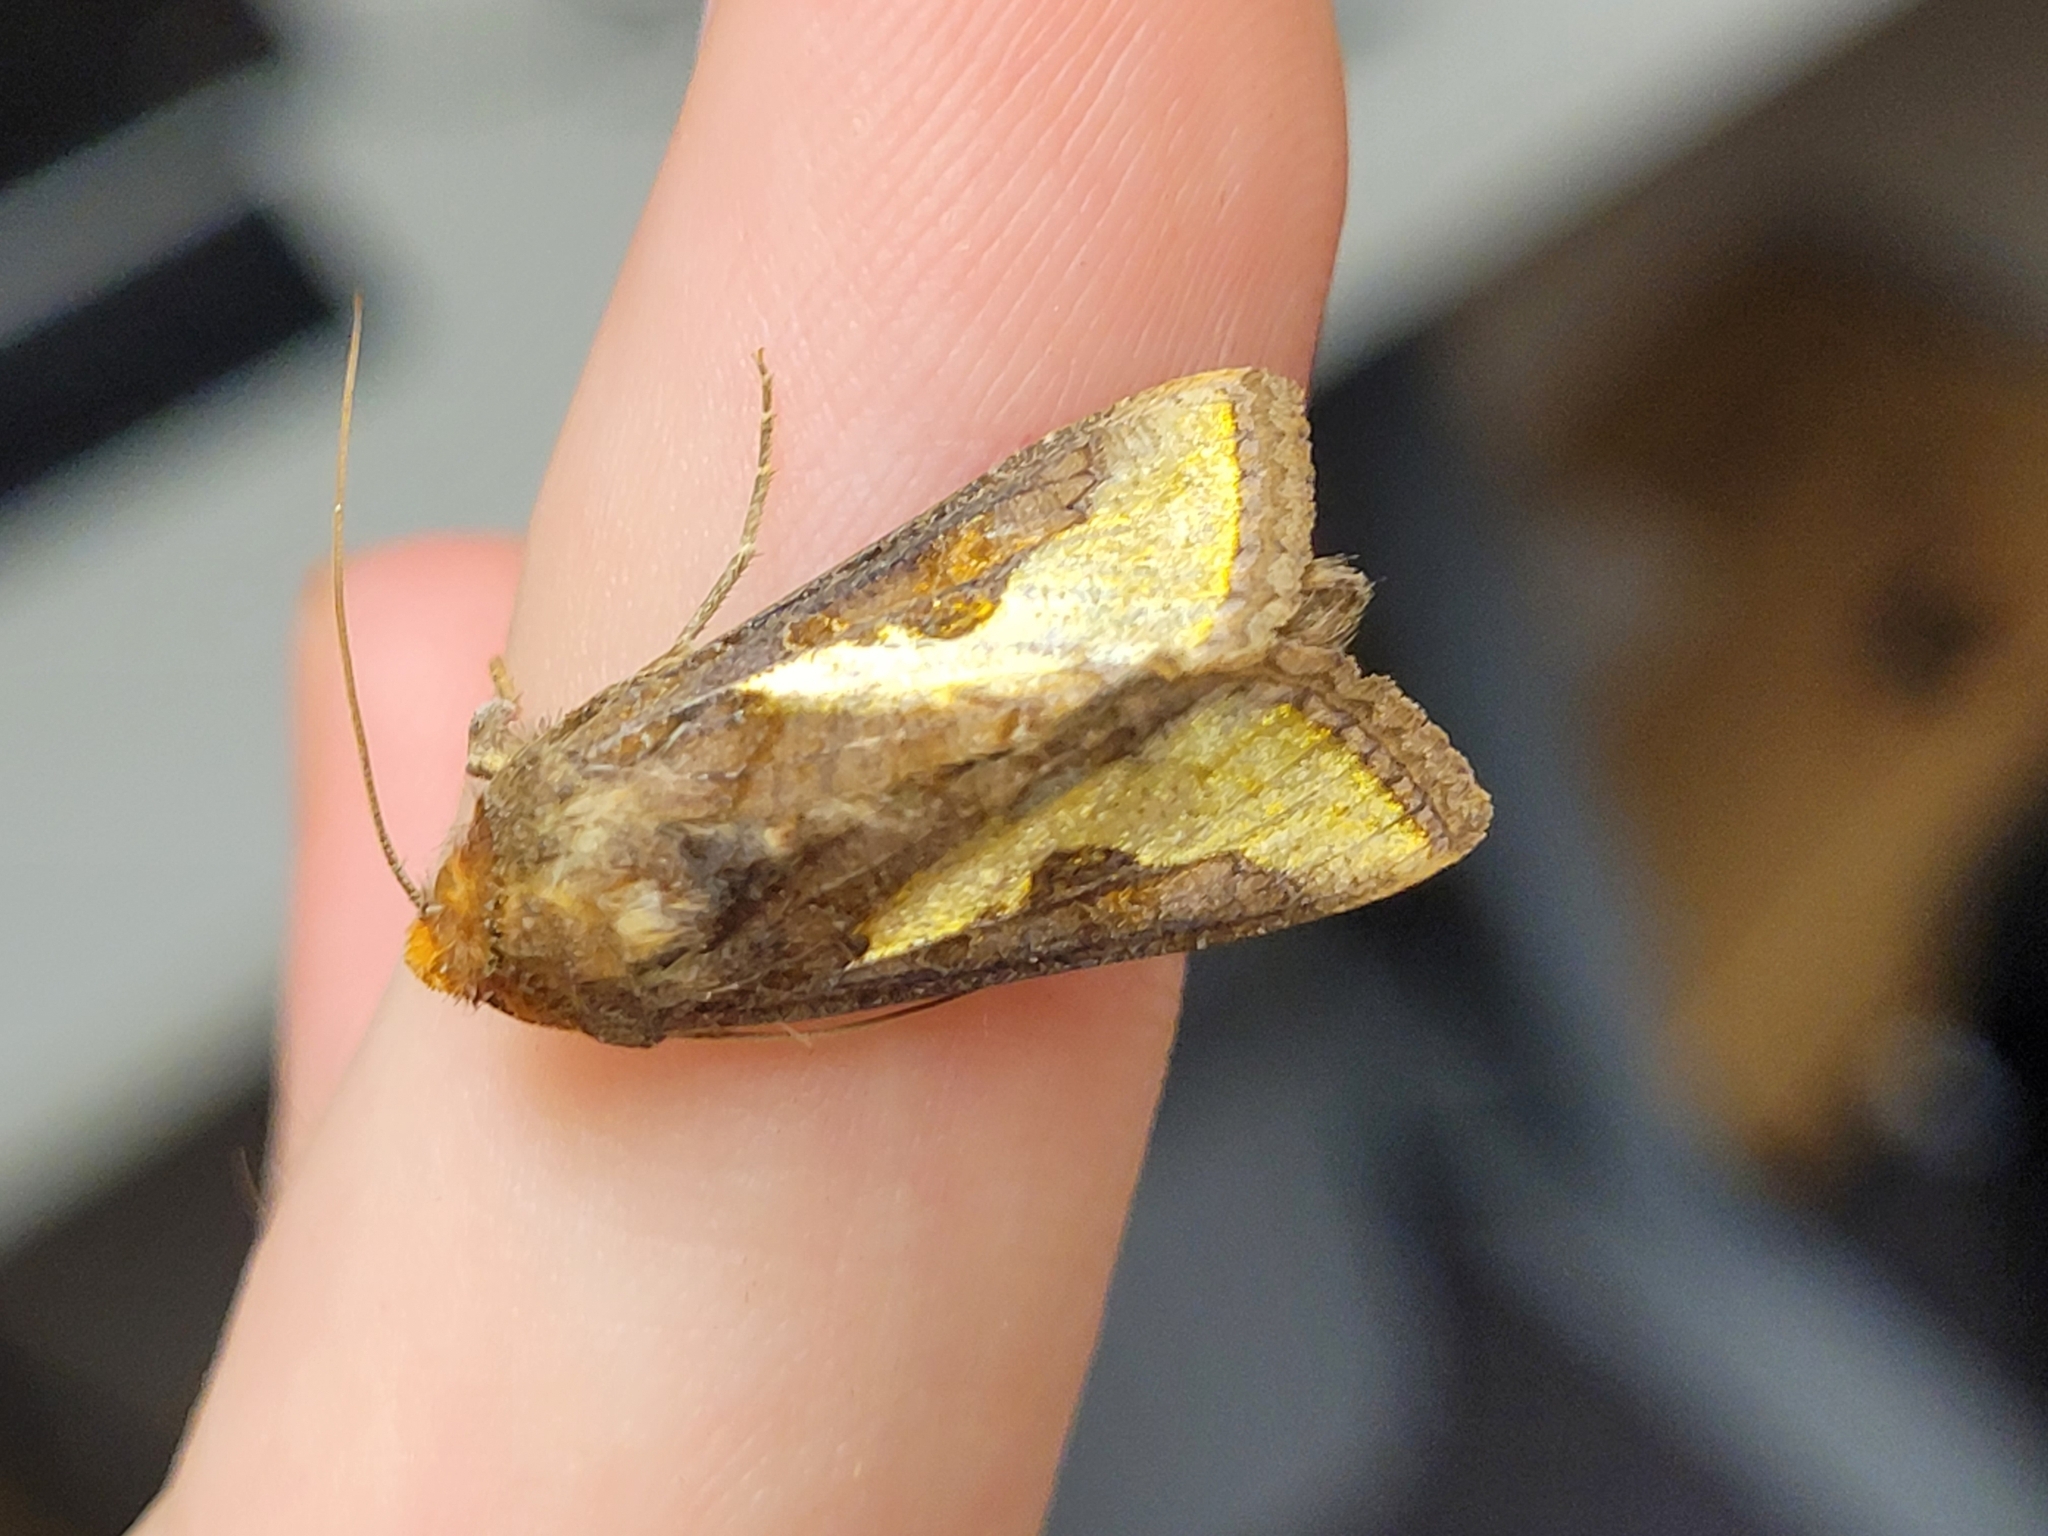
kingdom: Animalia
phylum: Arthropoda
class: Insecta
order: Lepidoptera
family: Noctuidae
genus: Thysanoplusia
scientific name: Thysanoplusia orichalcea
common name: Slender burnished brass, golden plusia
